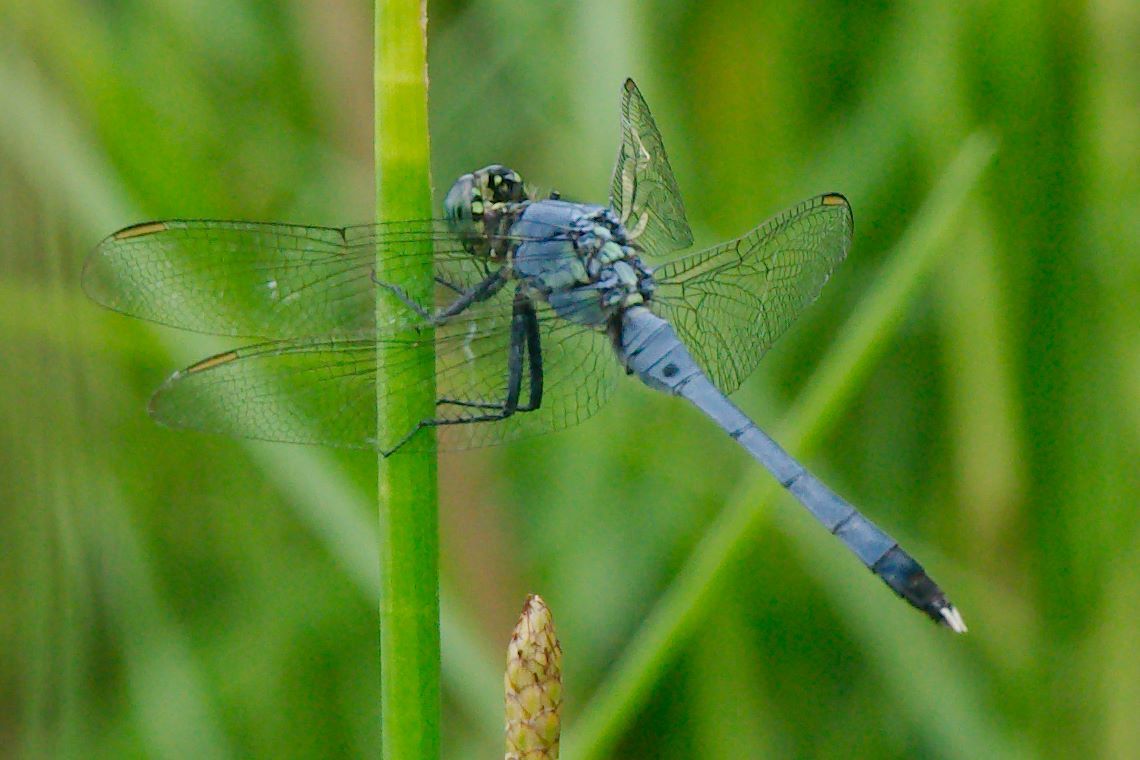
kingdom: Animalia
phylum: Arthropoda
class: Insecta
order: Odonata
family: Libellulidae
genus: Erythemis
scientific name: Erythemis simplicicollis
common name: Eastern pondhawk
